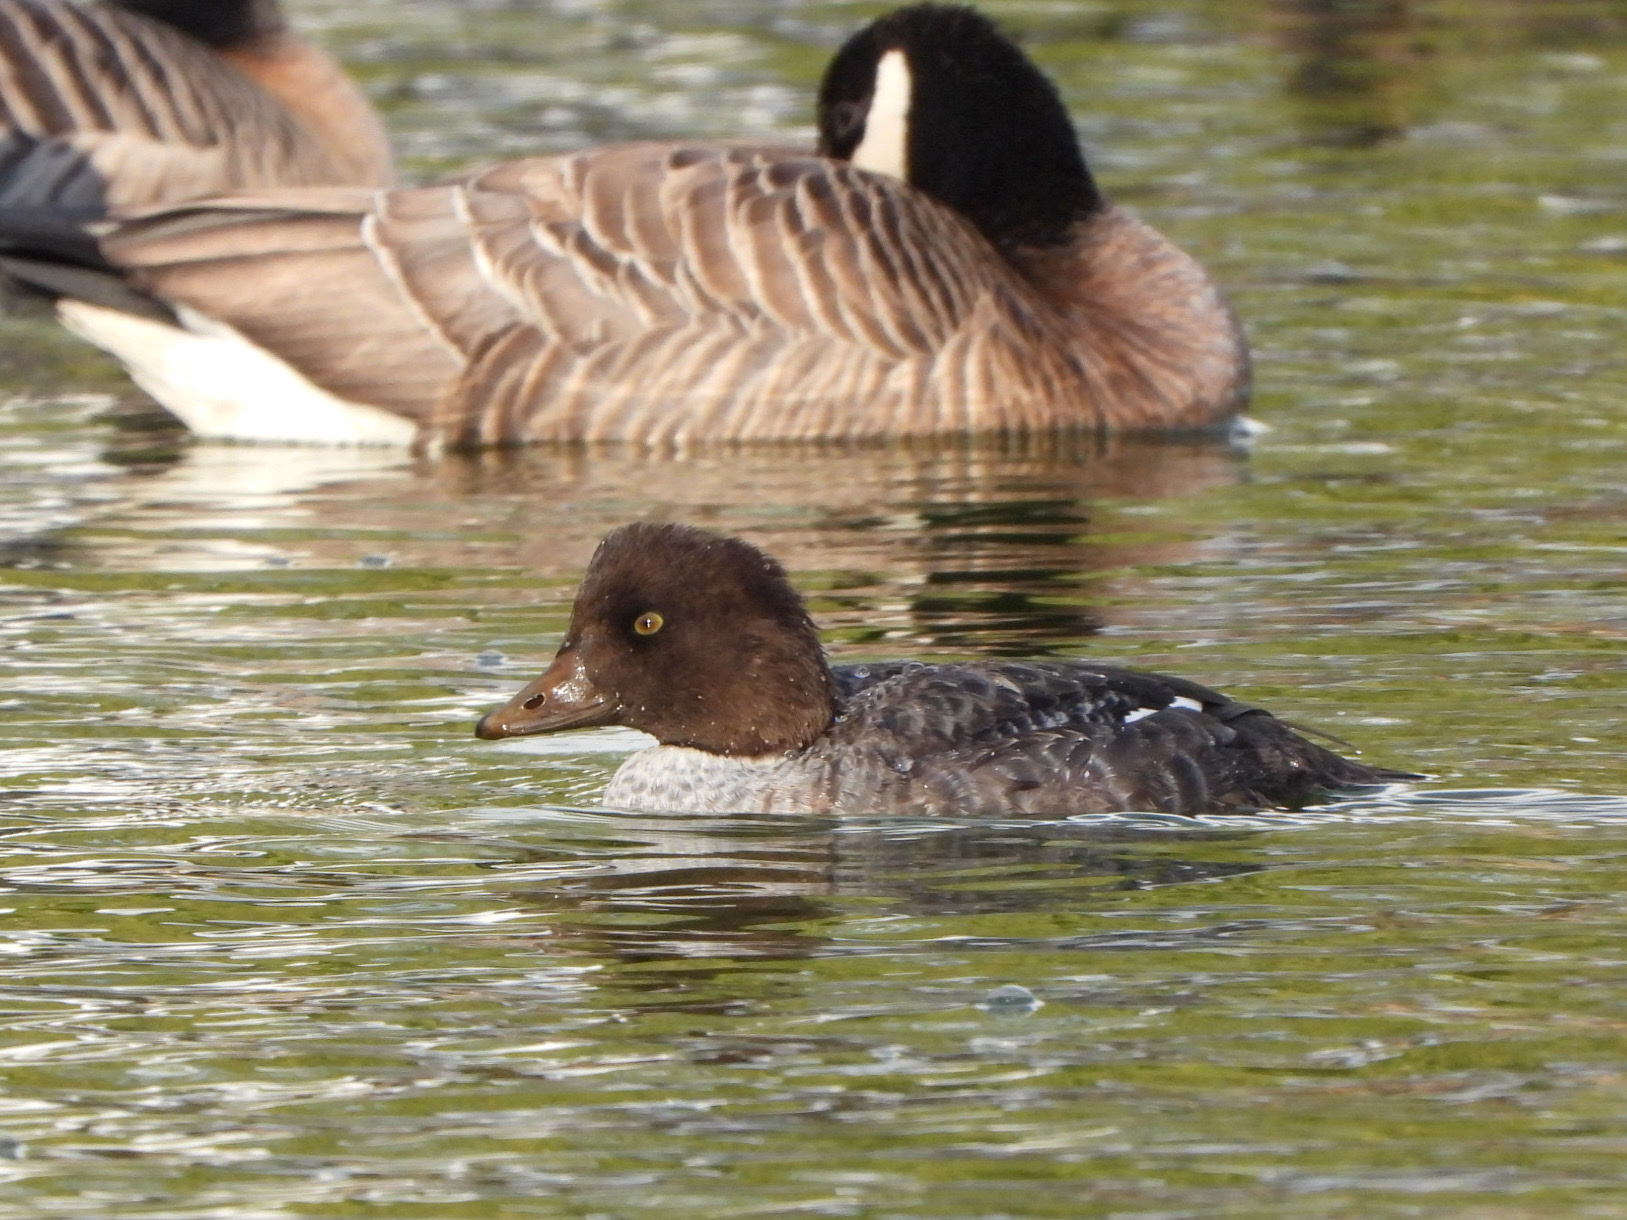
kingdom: Animalia
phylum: Chordata
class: Aves
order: Anseriformes
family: Anatidae
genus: Bucephala
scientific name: Bucephala islandica
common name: Barrow's goldeneye
